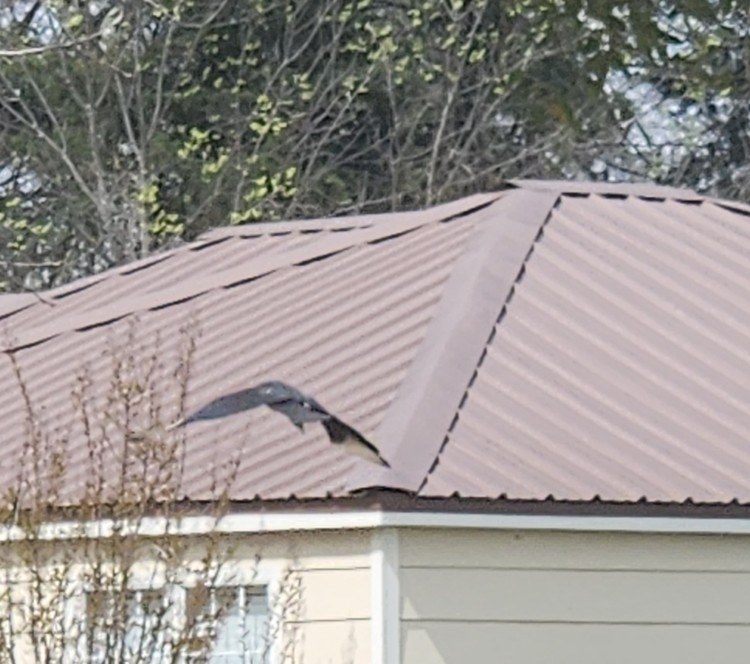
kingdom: Animalia
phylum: Chordata
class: Aves
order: Accipitriformes
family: Cathartidae
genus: Coragyps
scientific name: Coragyps atratus
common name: Black vulture
